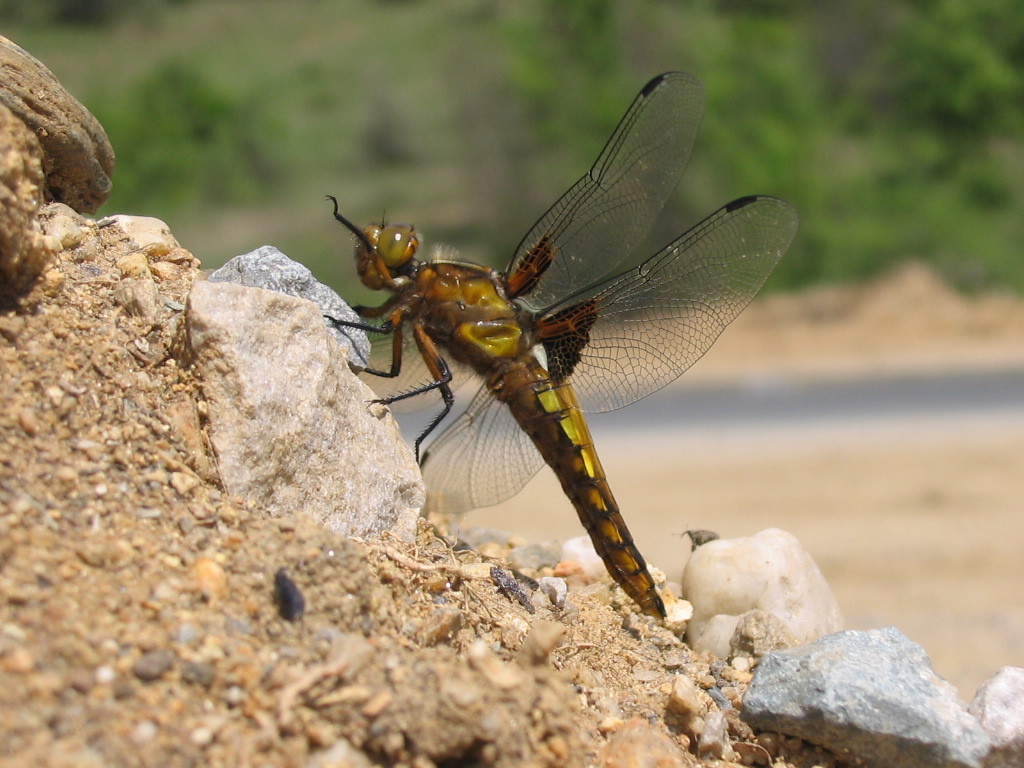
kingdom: Animalia
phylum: Arthropoda
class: Insecta
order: Odonata
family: Libellulidae
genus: Libellula
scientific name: Libellula depressa
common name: Broad-bodied chaser
